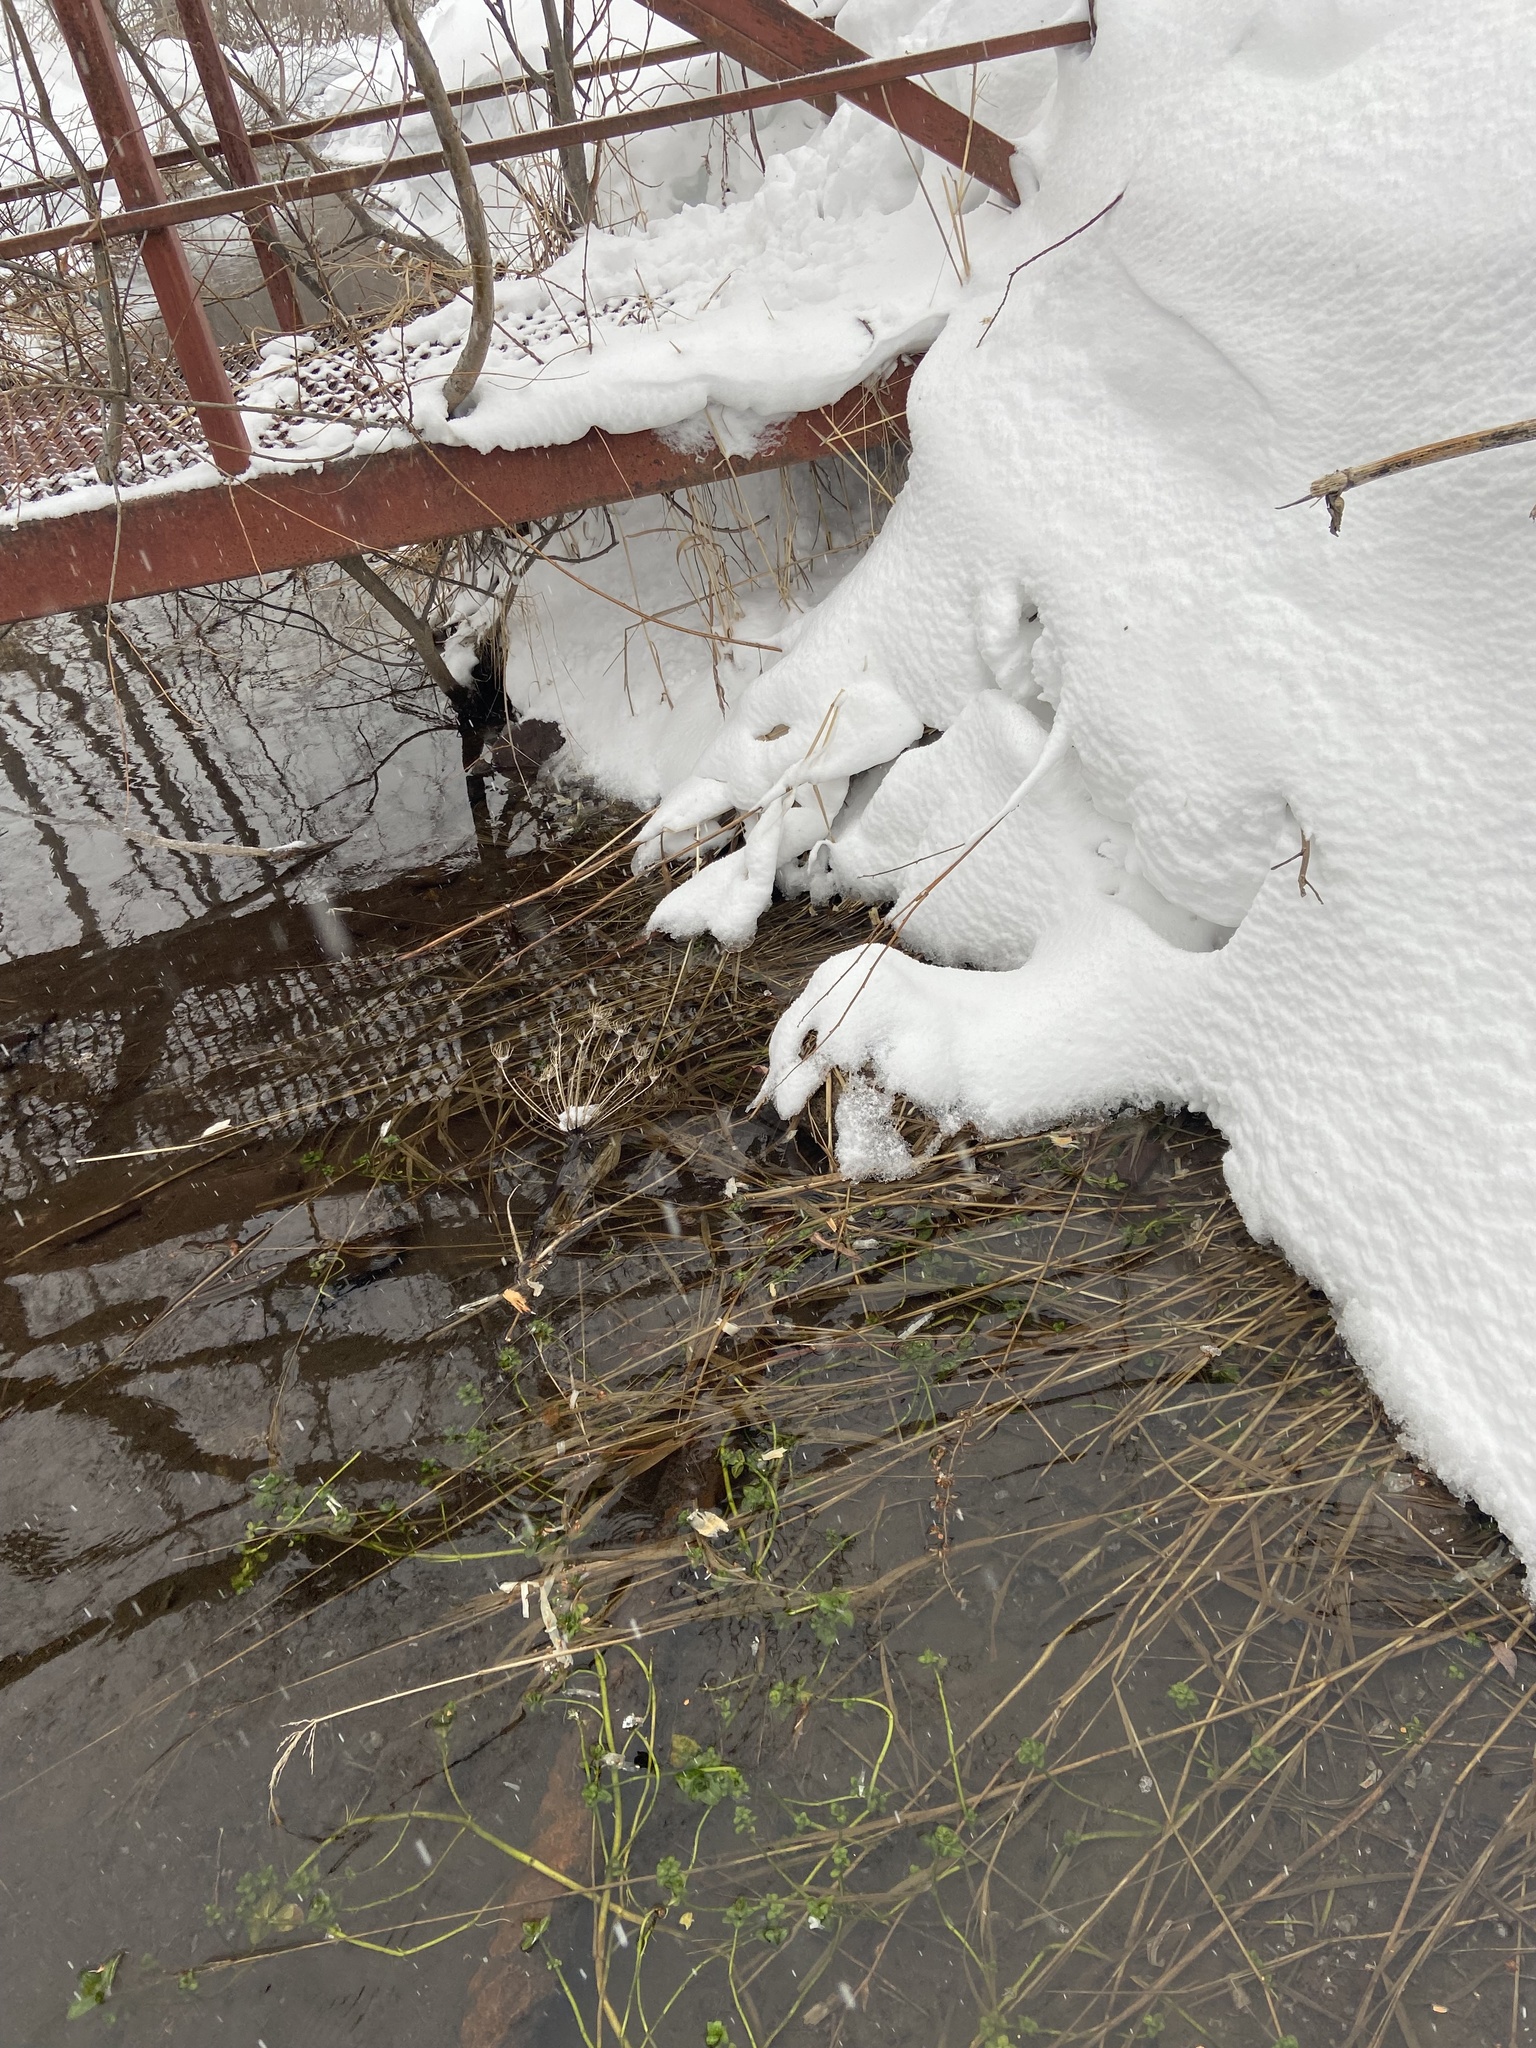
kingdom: Plantae
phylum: Tracheophyta
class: Magnoliopsida
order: Lamiales
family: Plantaginaceae
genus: Veronica
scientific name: Veronica americana
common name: American brooklime
